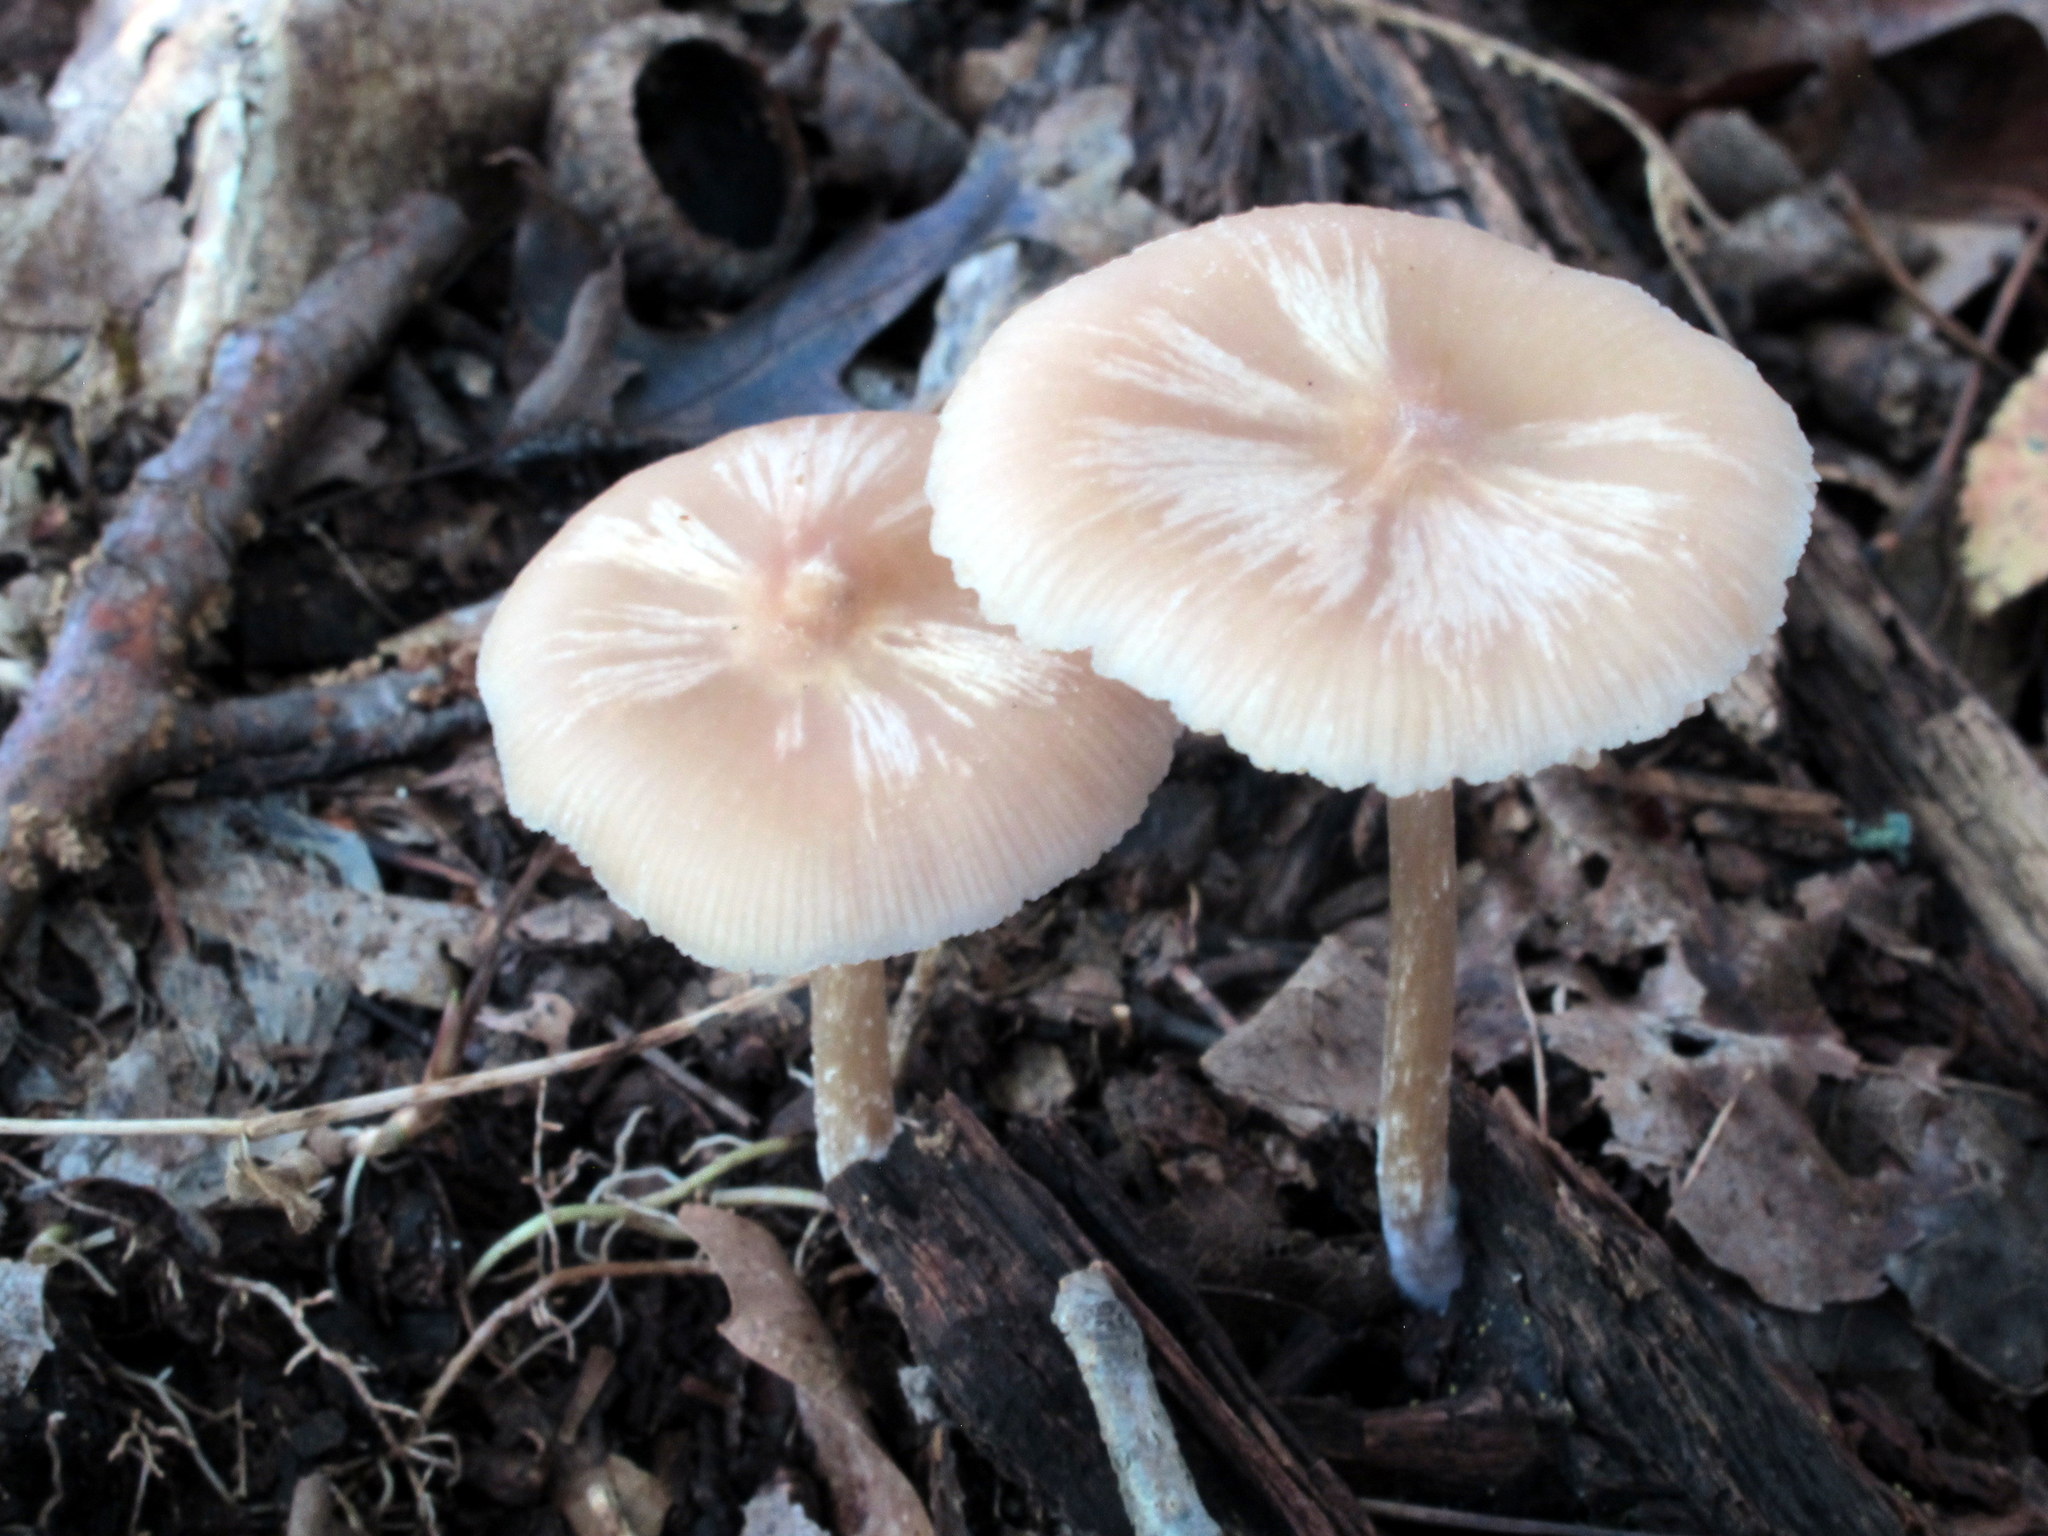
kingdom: Fungi
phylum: Basidiomycota
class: Agaricomycetes
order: Agaricales
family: Entolomataceae
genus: Entoloma
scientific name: Entoloma strictius
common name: Straight-stalked entoloma
